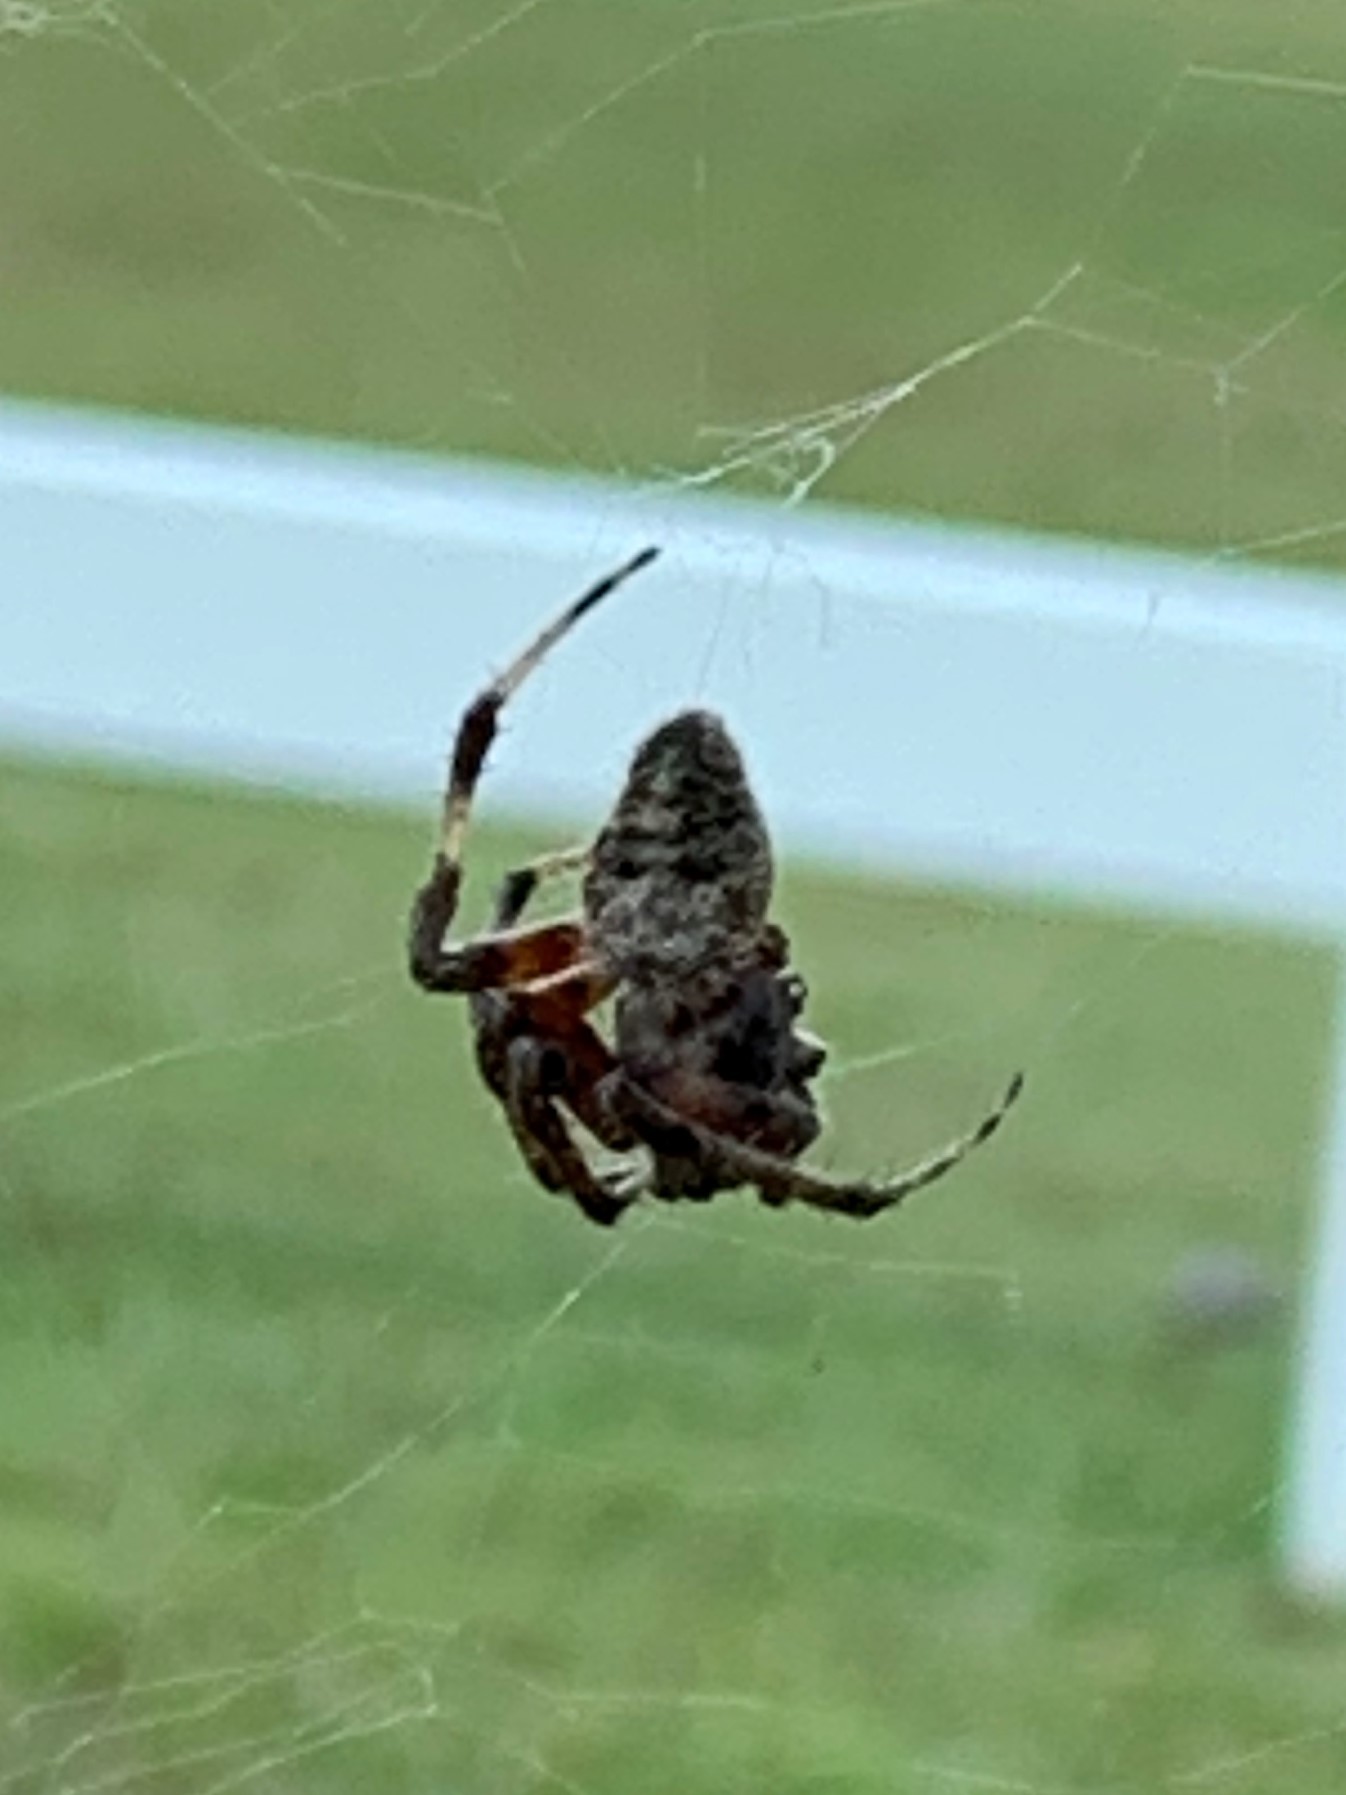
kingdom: Animalia
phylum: Arthropoda
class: Arachnida
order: Araneae
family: Araneidae
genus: Neoscona
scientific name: Neoscona domiciliorum
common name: Red-femured spotted orbweaver
